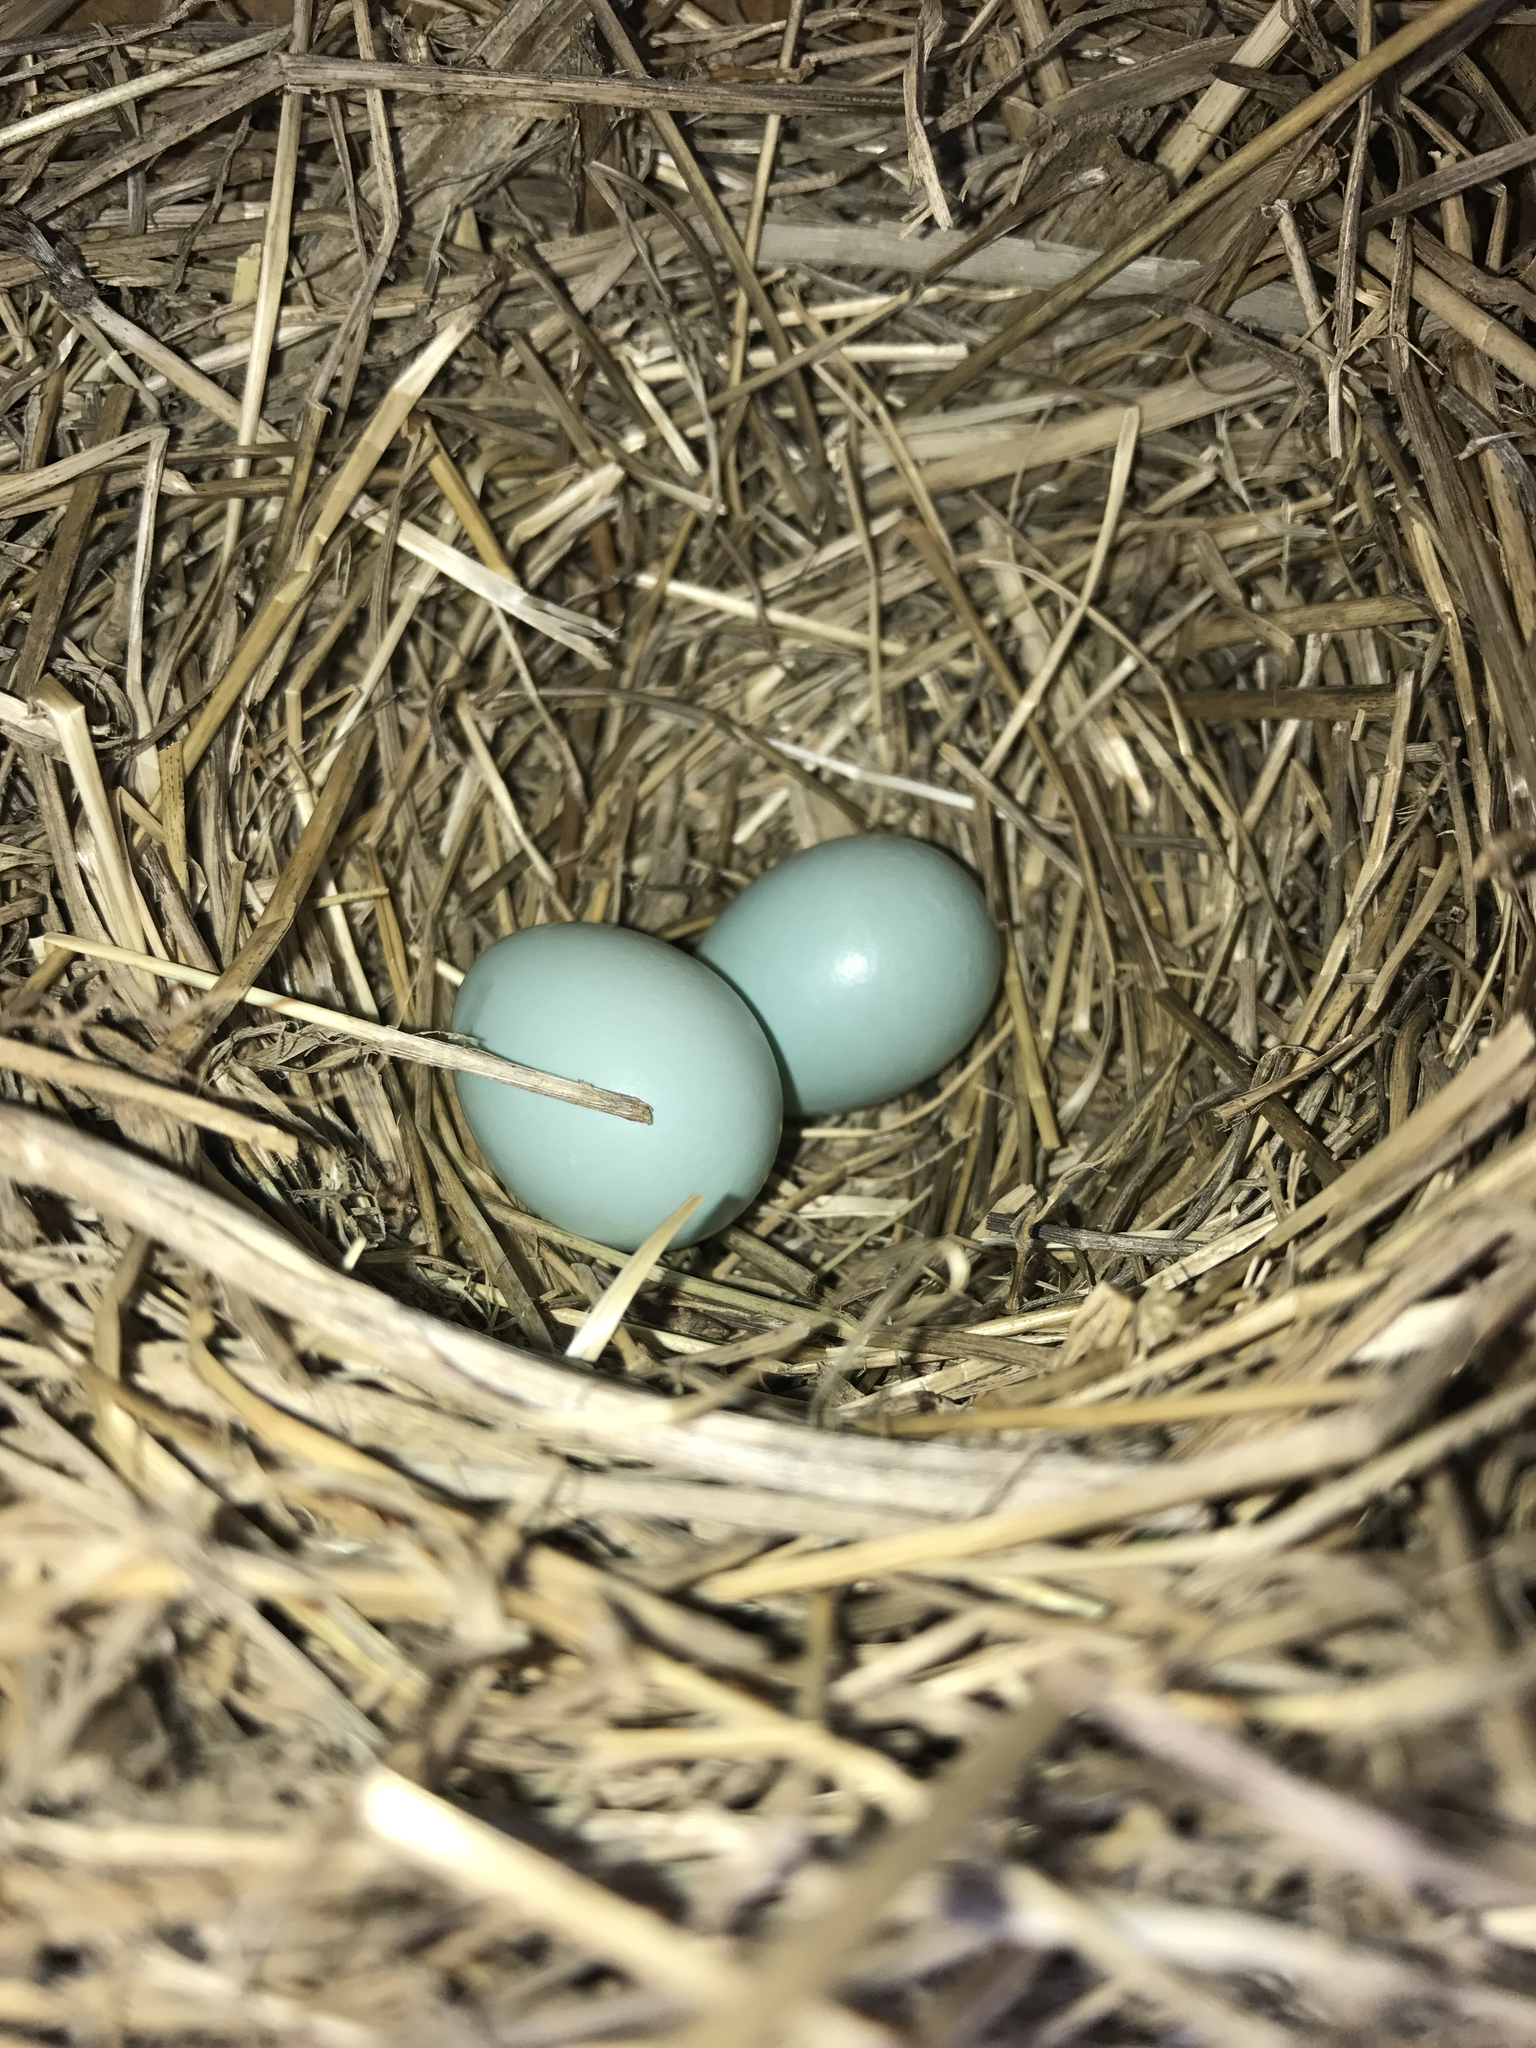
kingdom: Animalia
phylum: Chordata
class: Aves
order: Passeriformes
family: Turdidae
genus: Sialia
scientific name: Sialia sialis
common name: Eastern bluebird
